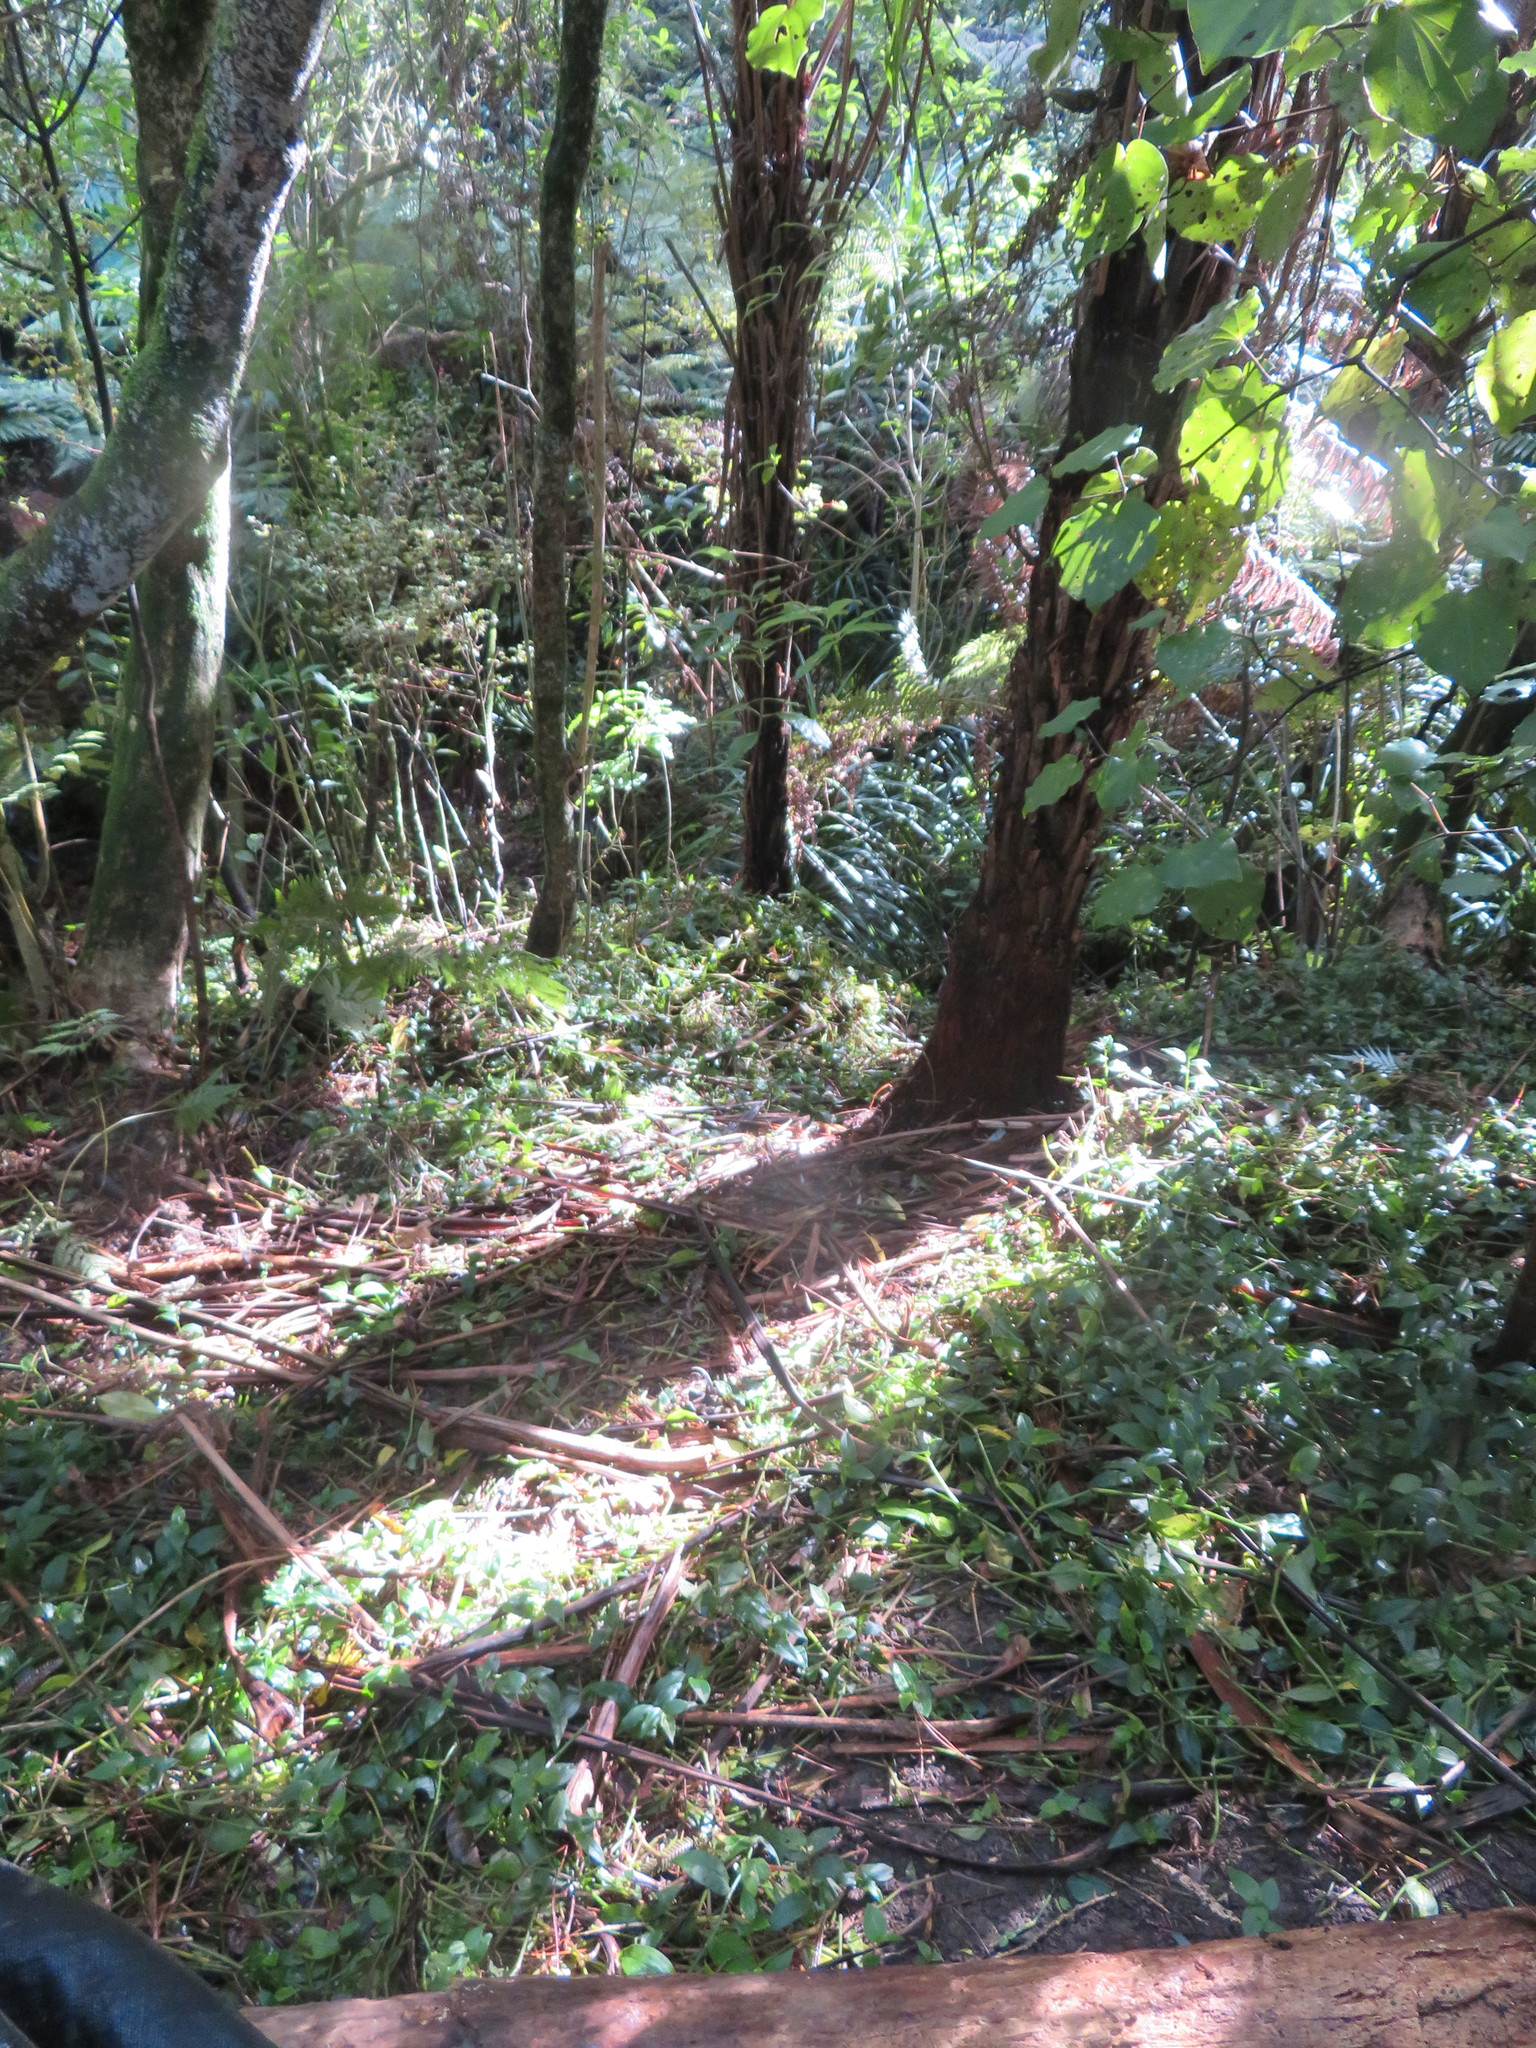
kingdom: Plantae
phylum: Tracheophyta
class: Liliopsida
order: Commelinales
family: Commelinaceae
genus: Tradescantia
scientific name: Tradescantia fluminensis
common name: Wandering-jew
